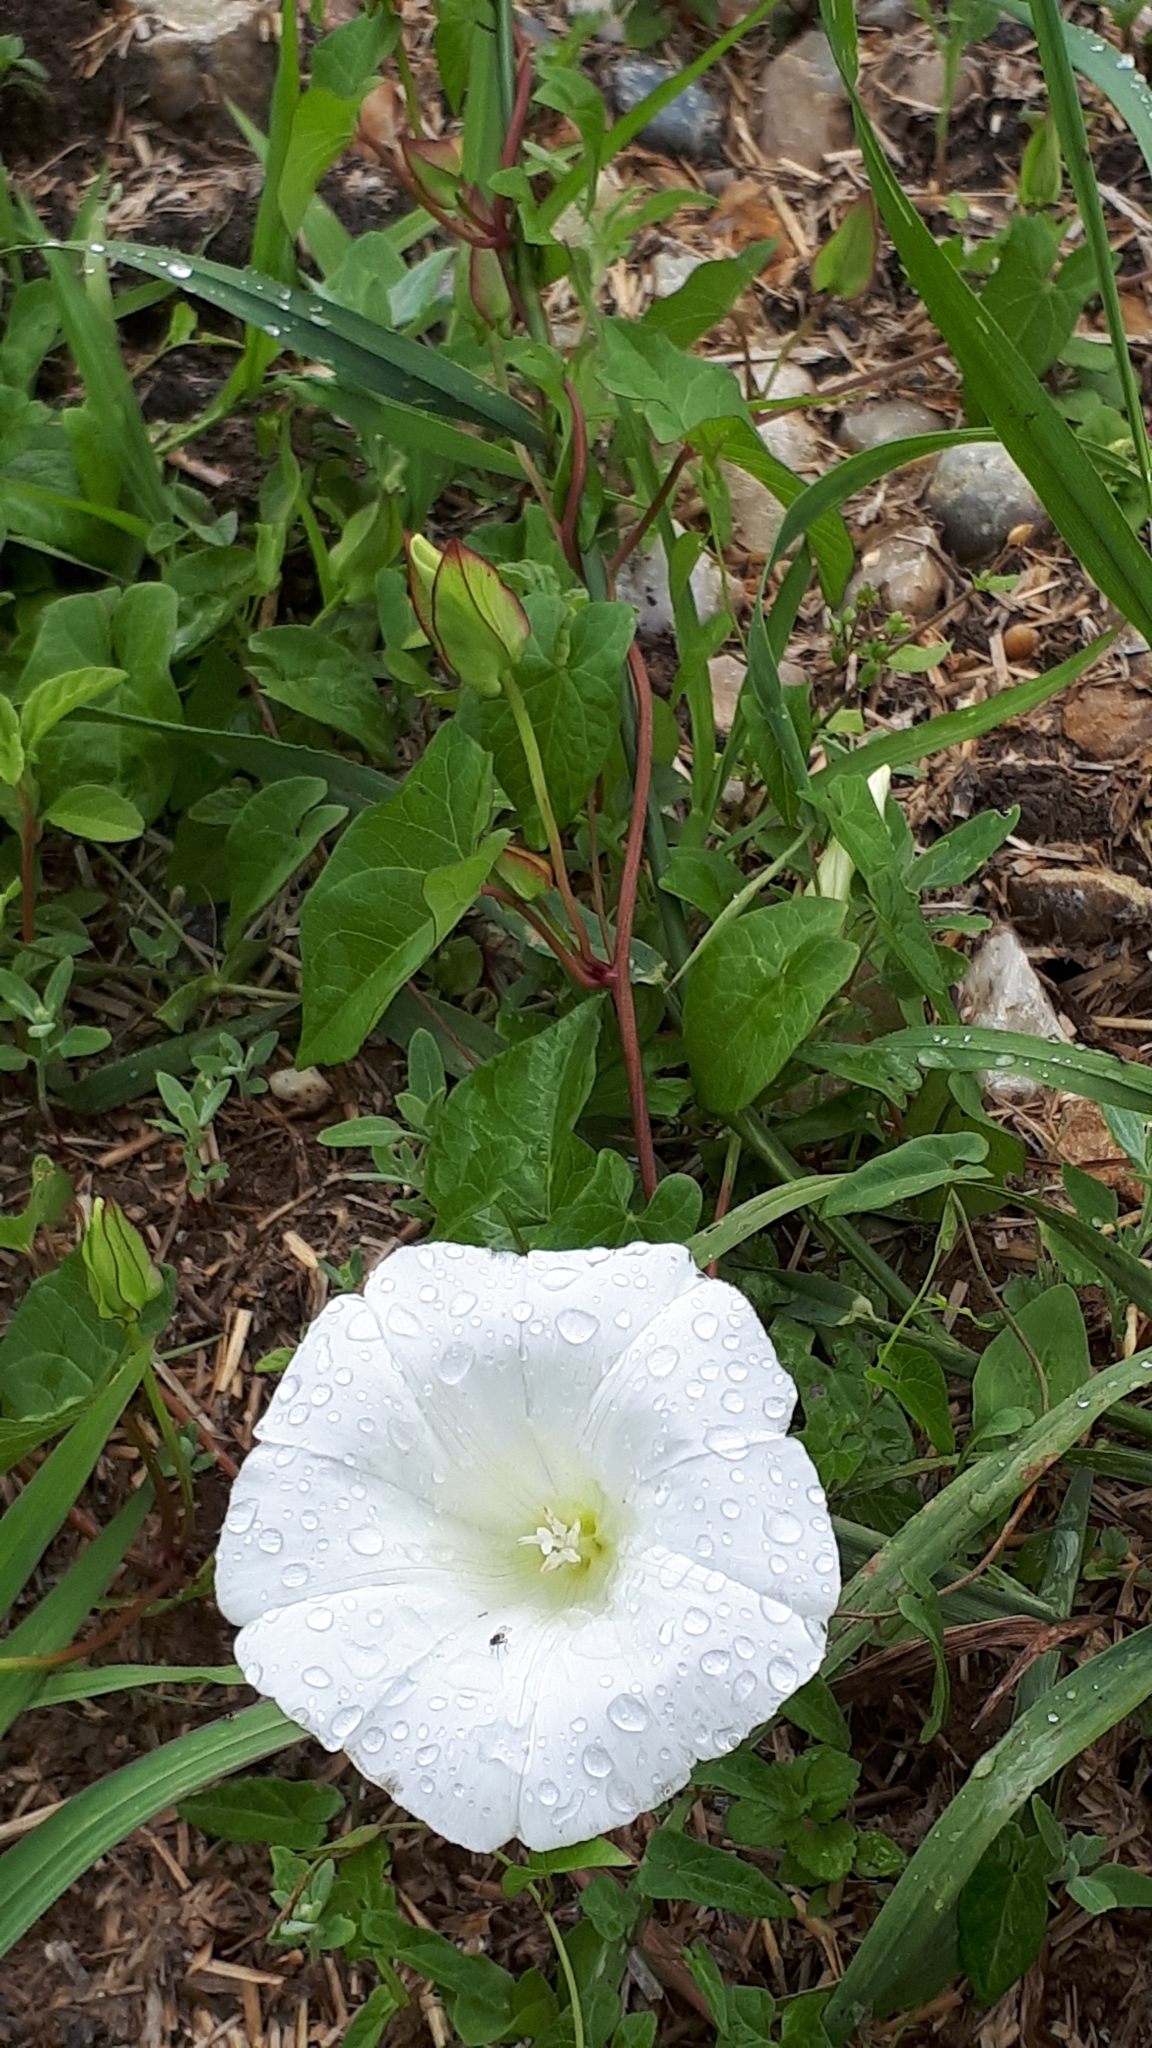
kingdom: Plantae
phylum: Tracheophyta
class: Magnoliopsida
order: Solanales
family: Convolvulaceae
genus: Calystegia
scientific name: Calystegia sepium
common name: Hedge bindweed
